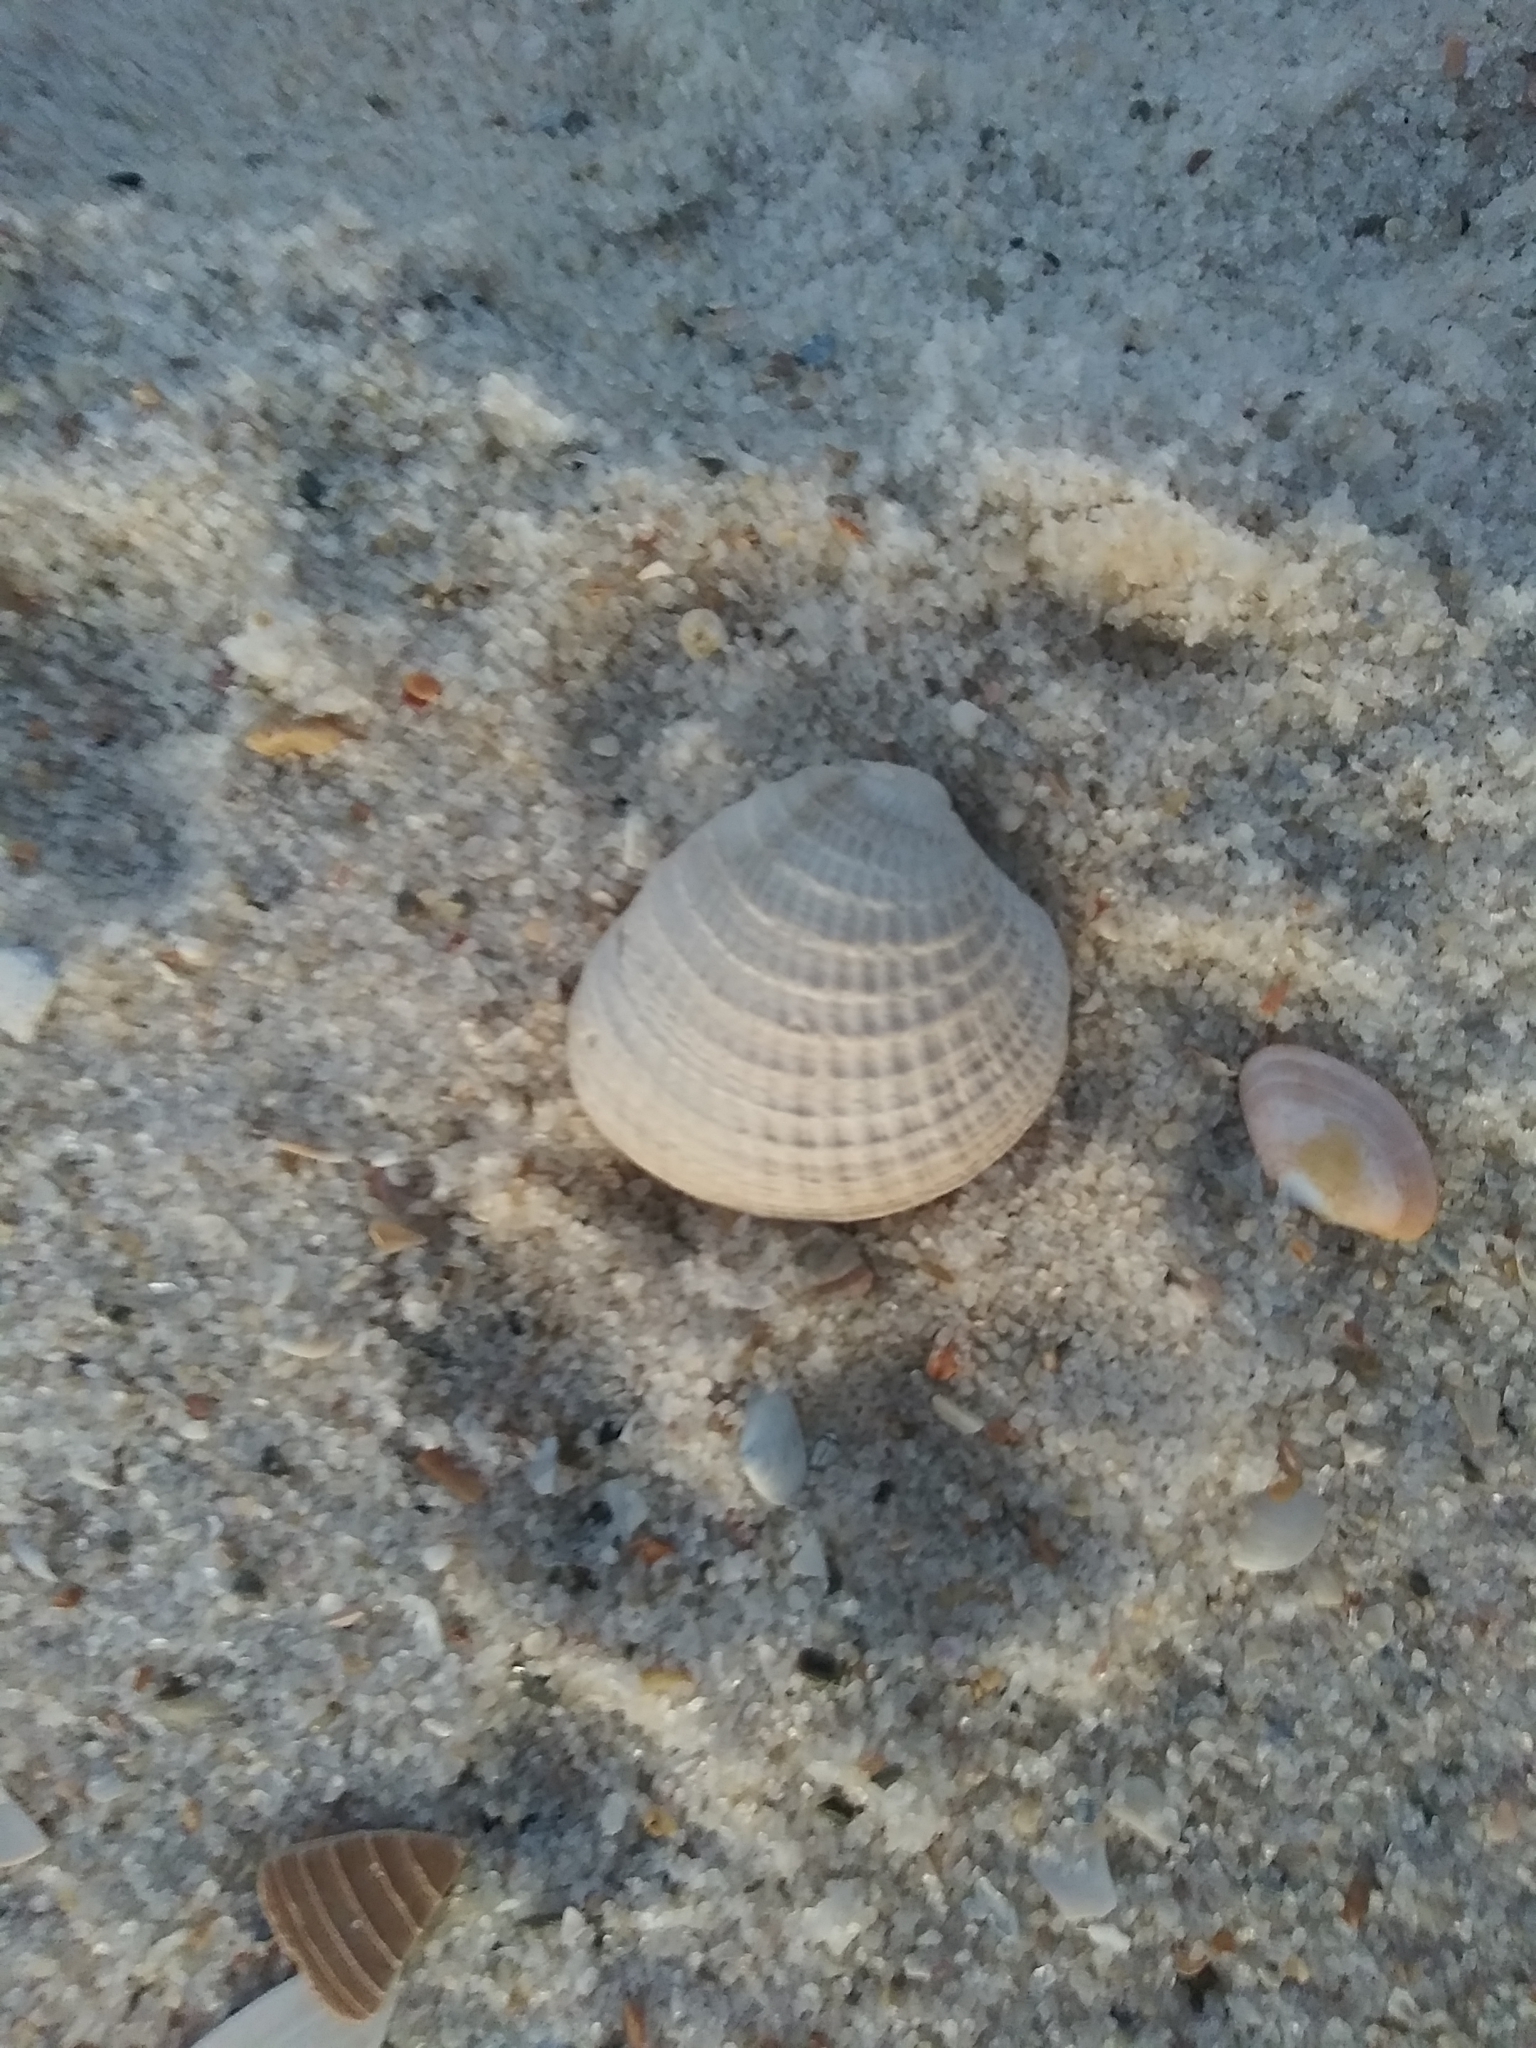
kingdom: Animalia
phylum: Mollusca
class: Bivalvia
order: Venerida
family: Veneridae
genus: Chione
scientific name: Chione elevata
